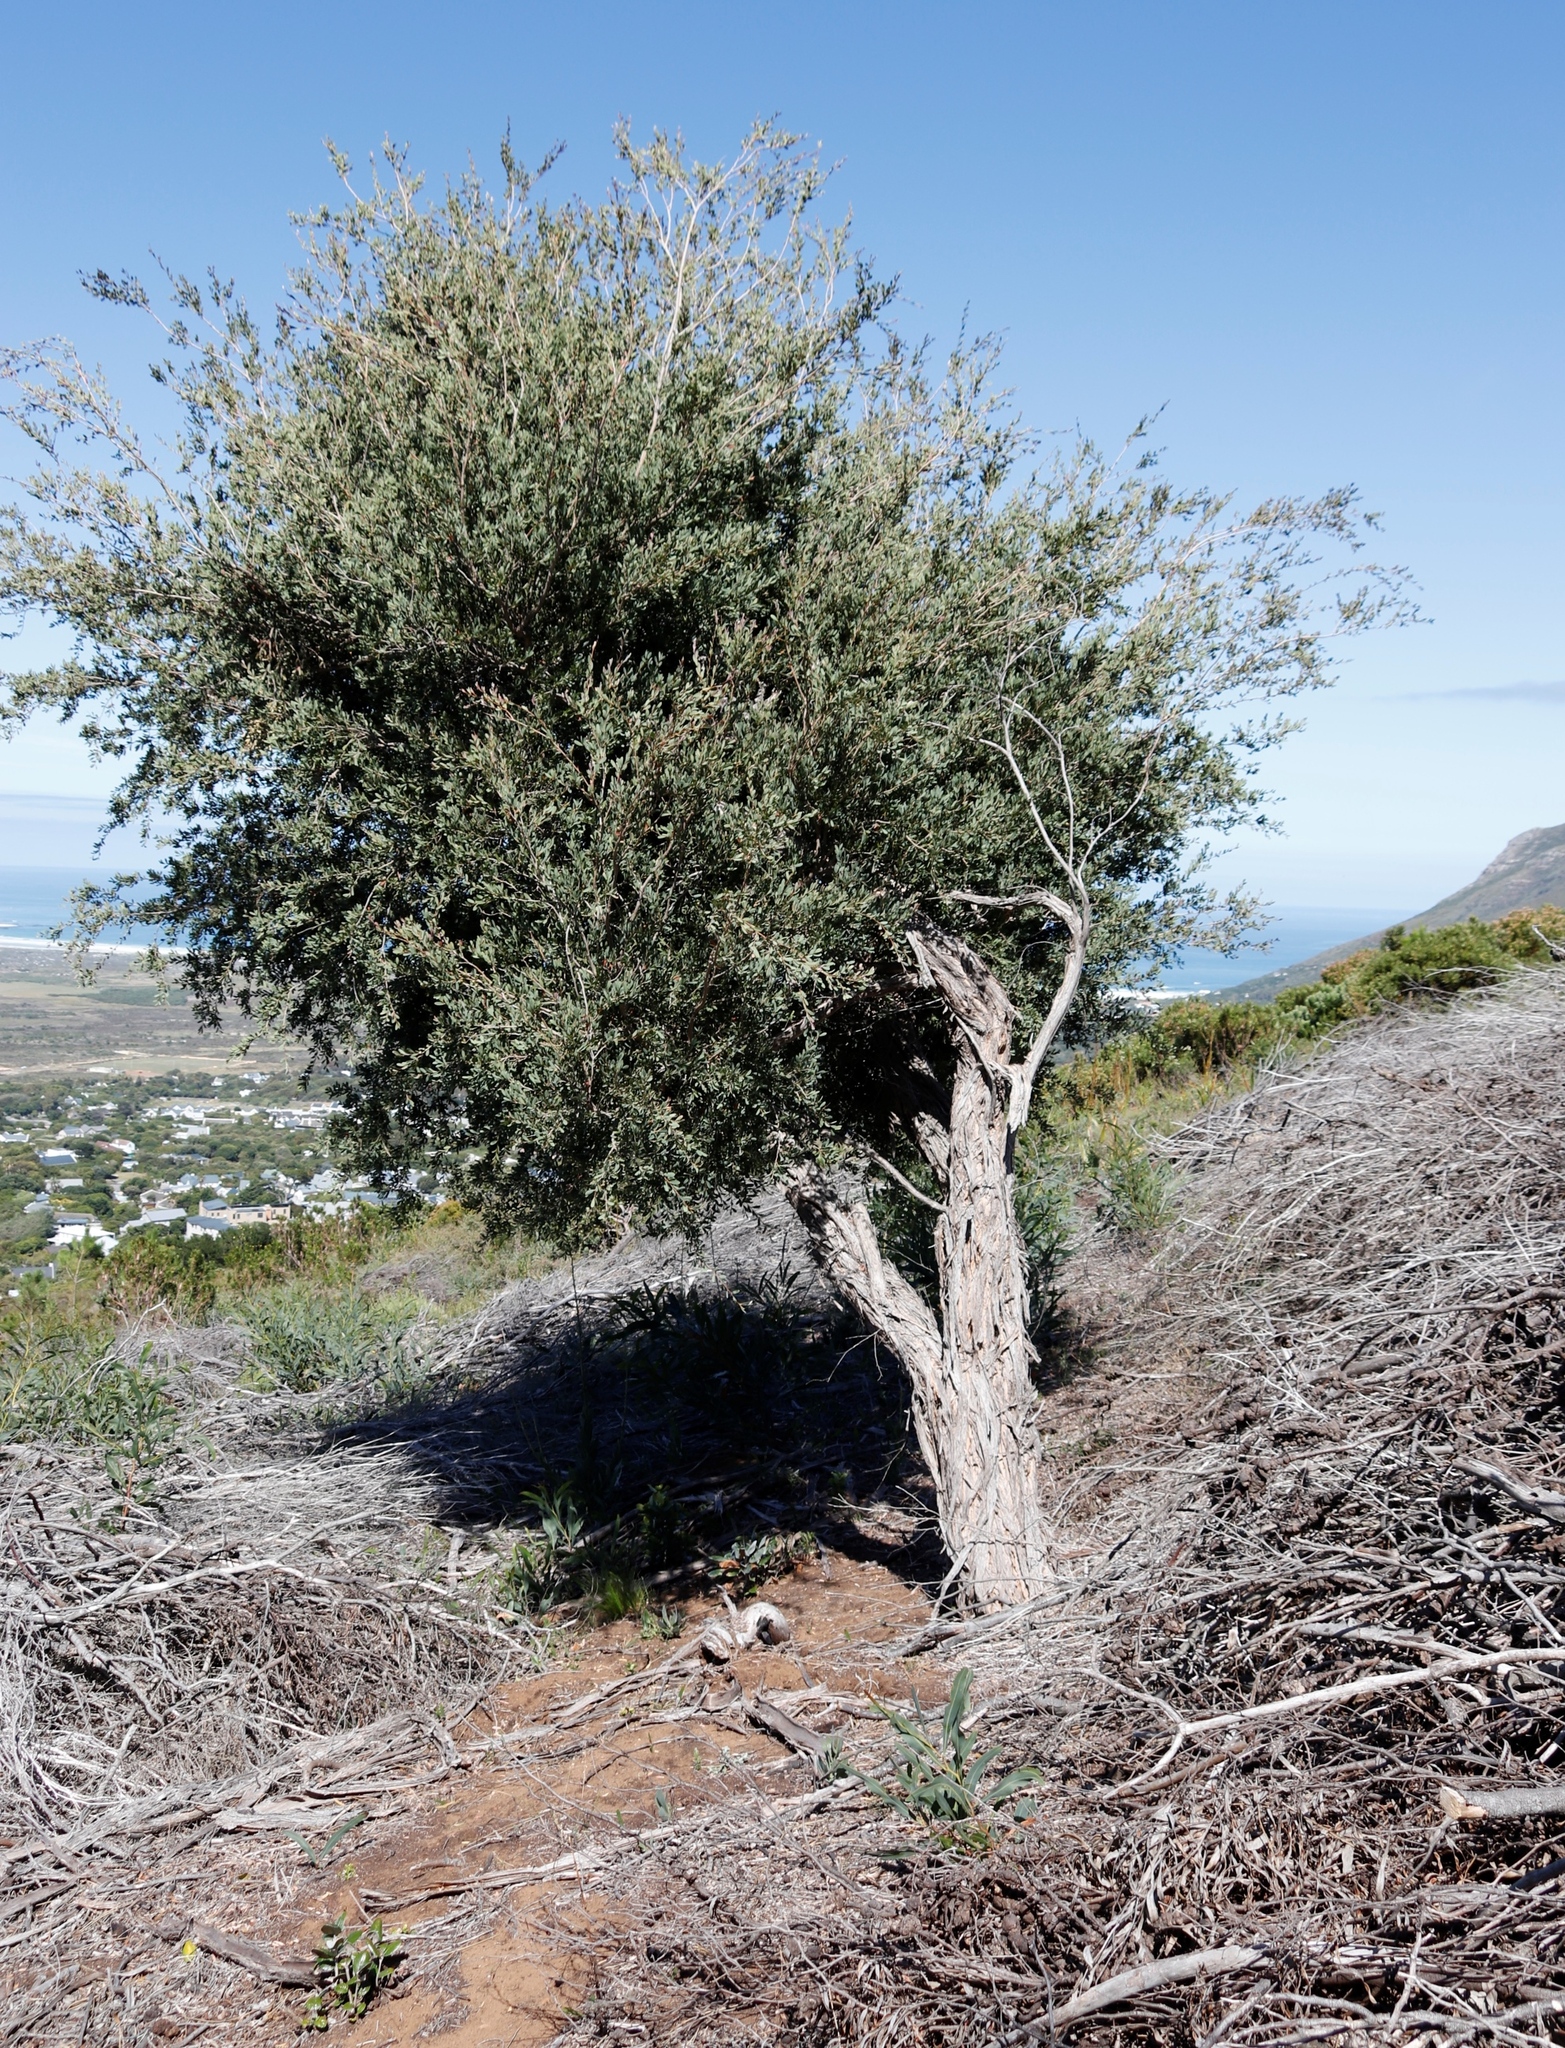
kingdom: Plantae
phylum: Tracheophyta
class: Magnoliopsida
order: Myrtales
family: Myrtaceae
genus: Leptospermum
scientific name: Leptospermum laevigatum
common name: Australian teatree
